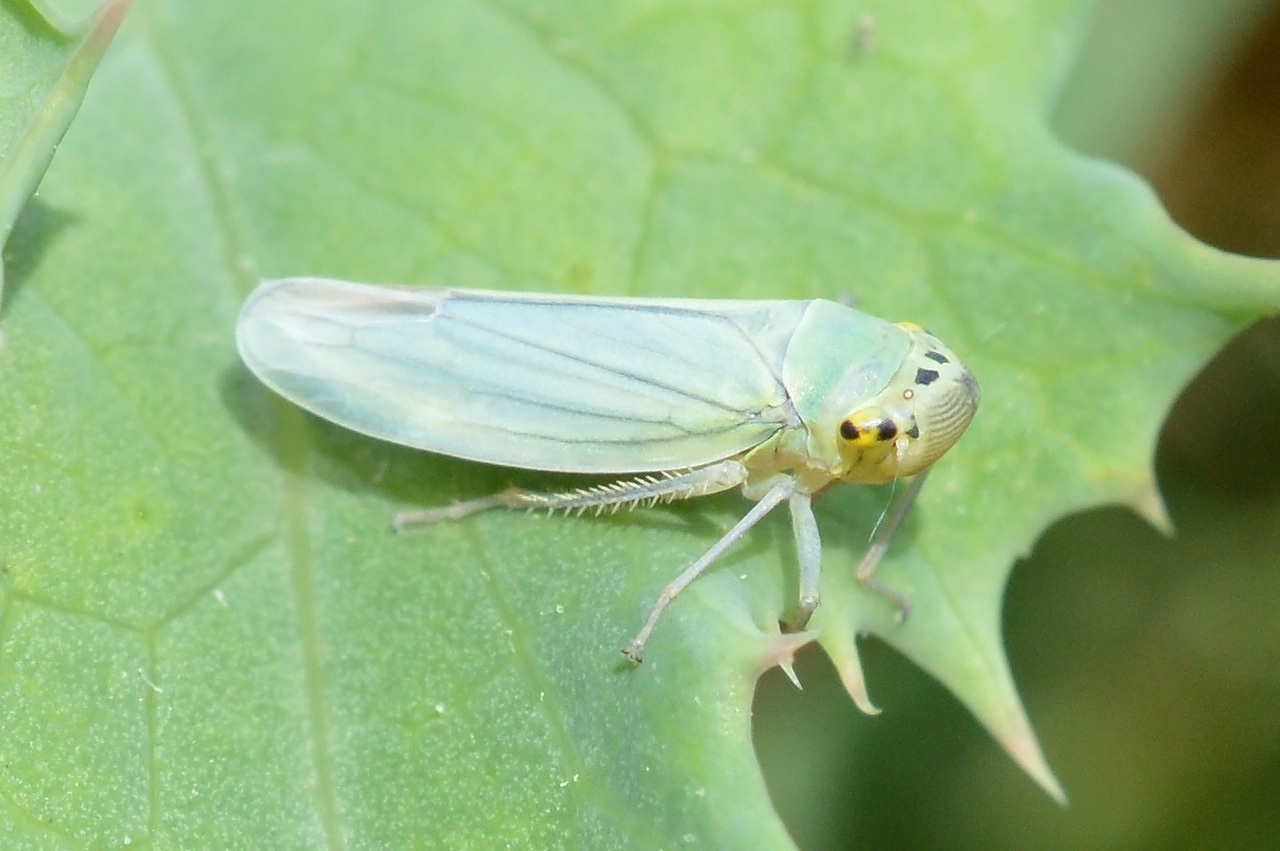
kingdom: Animalia
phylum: Arthropoda
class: Insecta
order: Hemiptera
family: Cicadellidae
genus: Cicadella
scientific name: Cicadella viridis
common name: Leafhopper
